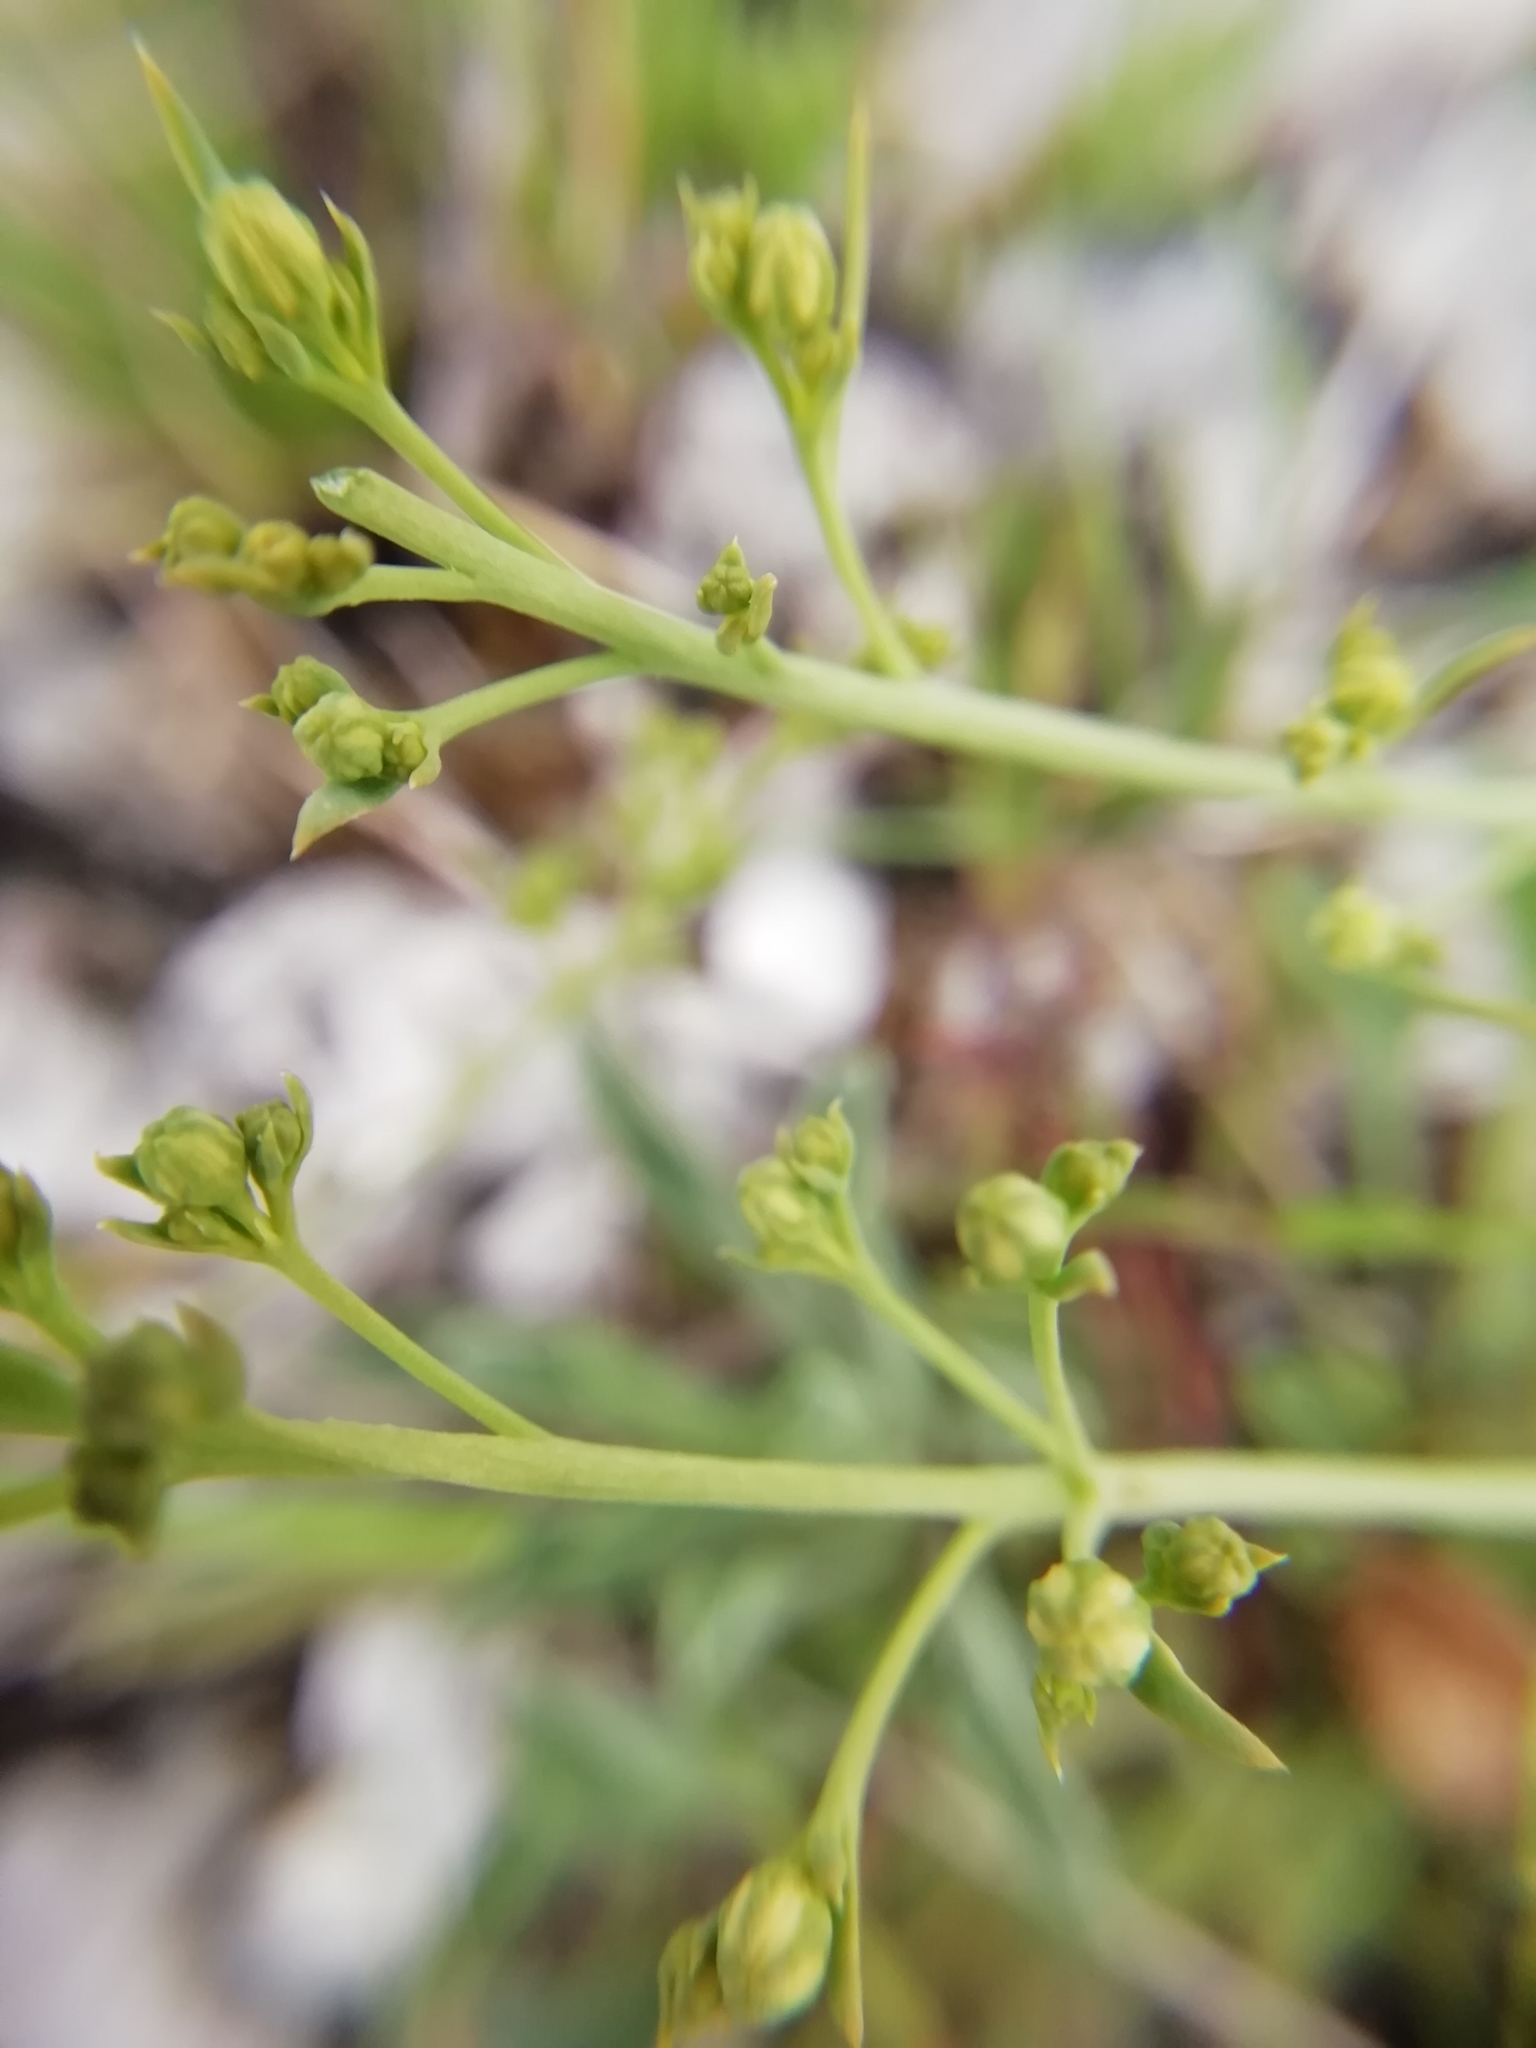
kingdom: Plantae
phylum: Tracheophyta
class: Magnoliopsida
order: Santalales
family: Thesiaceae
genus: Thesium
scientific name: Thesium divaricatum
